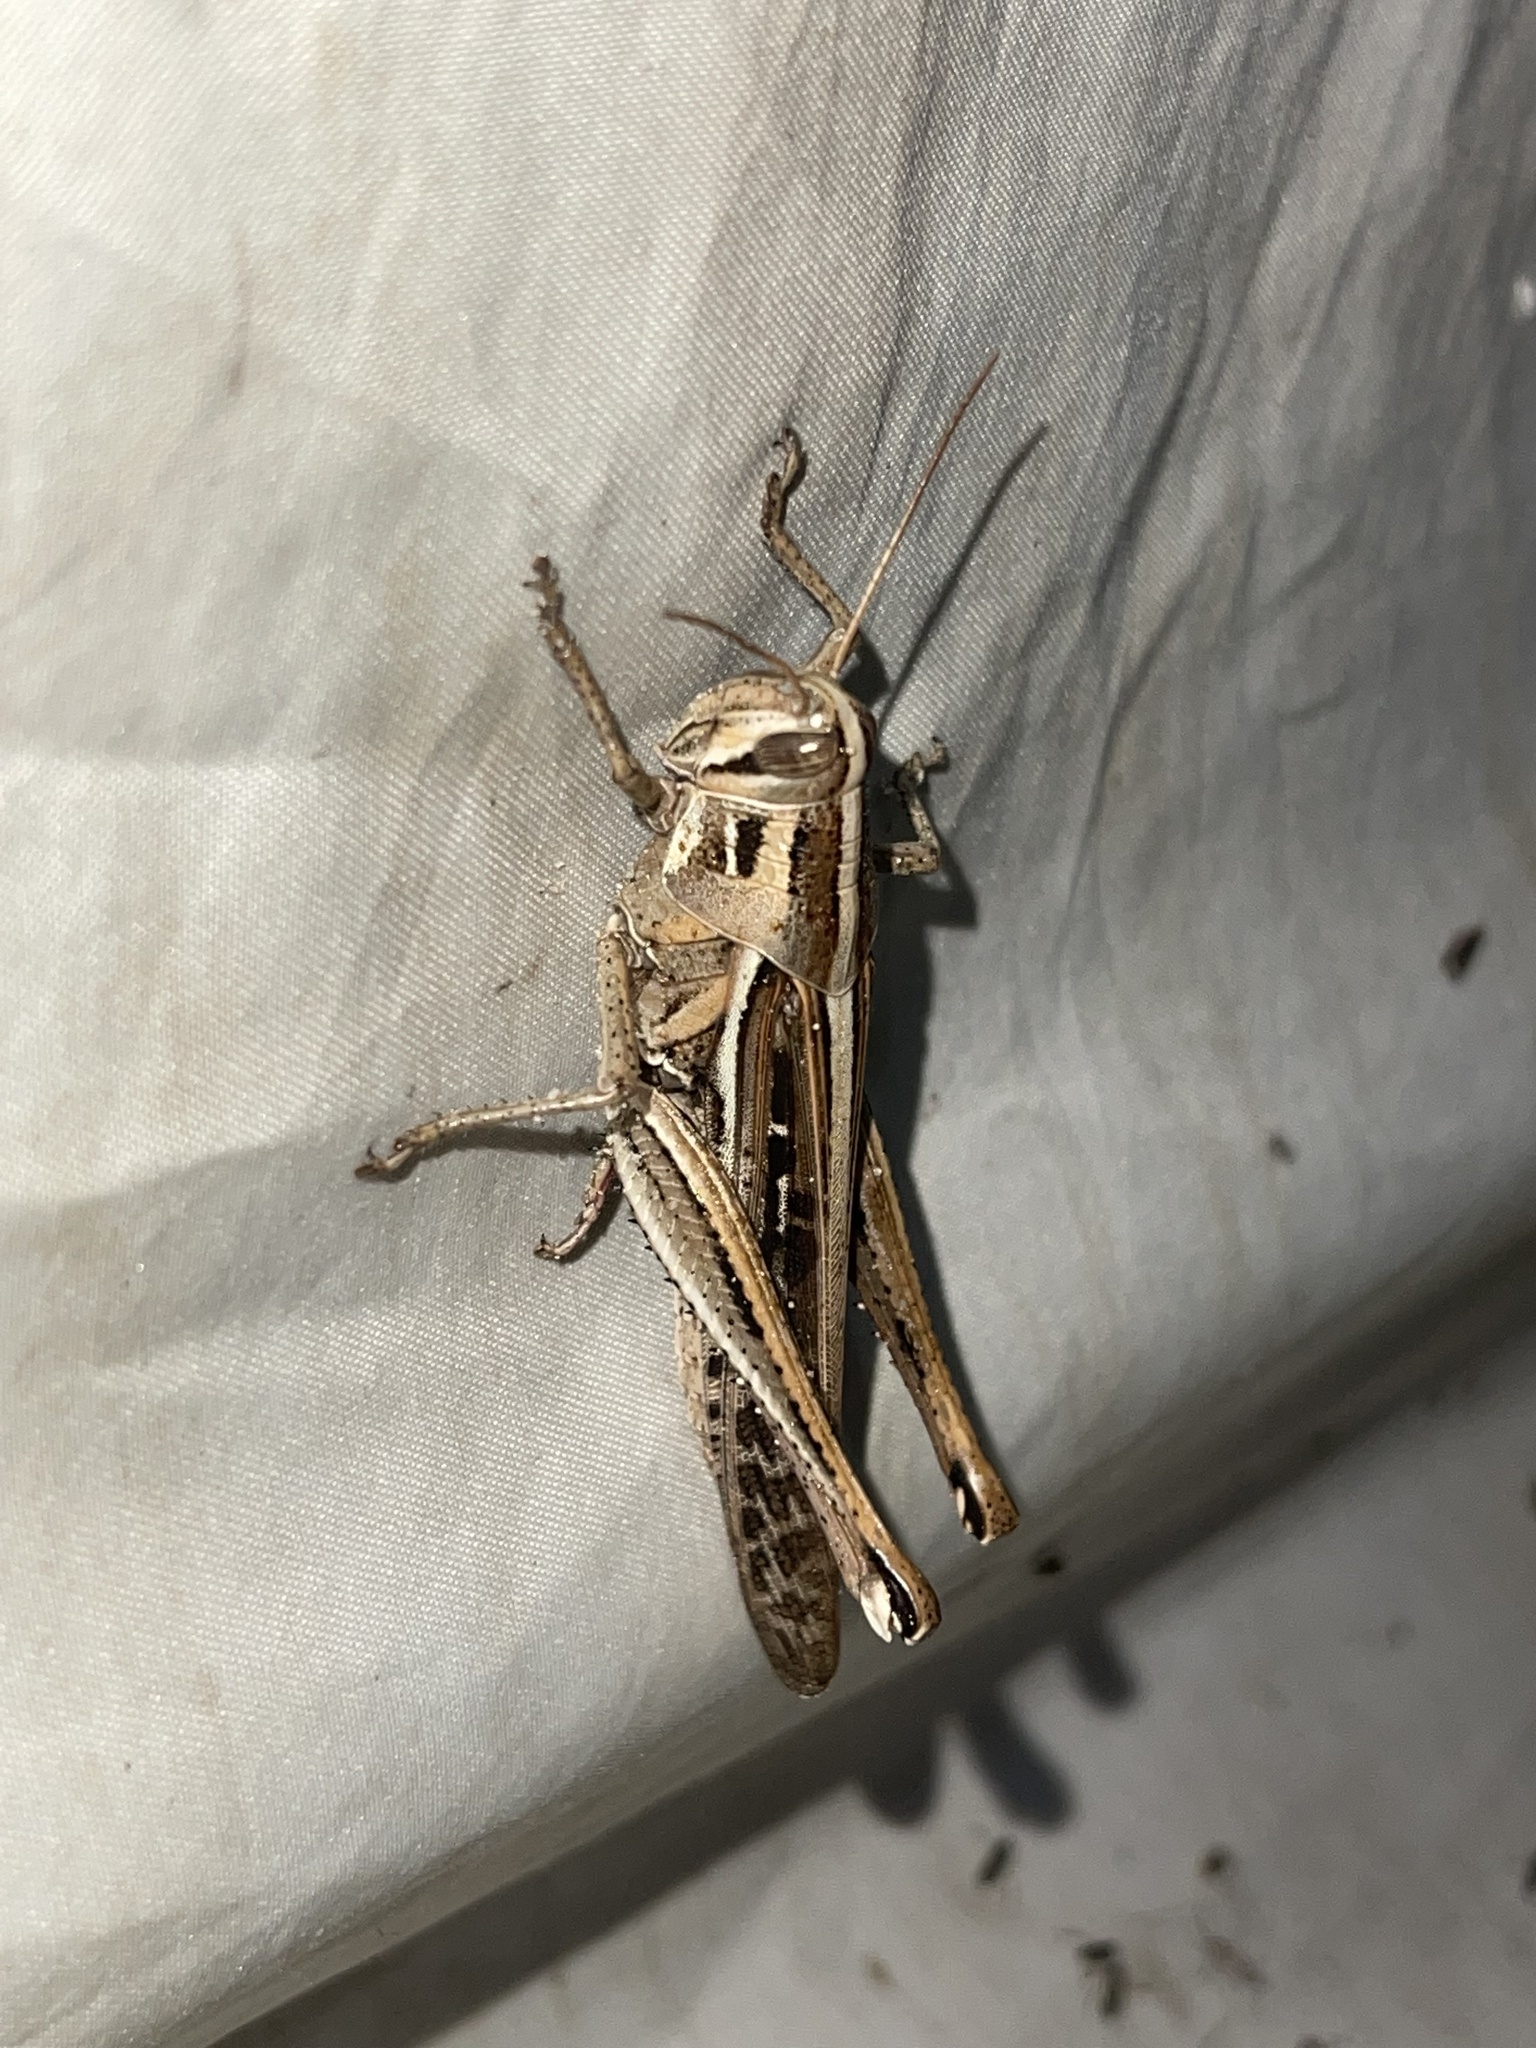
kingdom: Animalia
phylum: Arthropoda
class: Insecta
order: Orthoptera
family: Acrididae
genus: Schistocerca
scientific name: Schistocerca serialis
